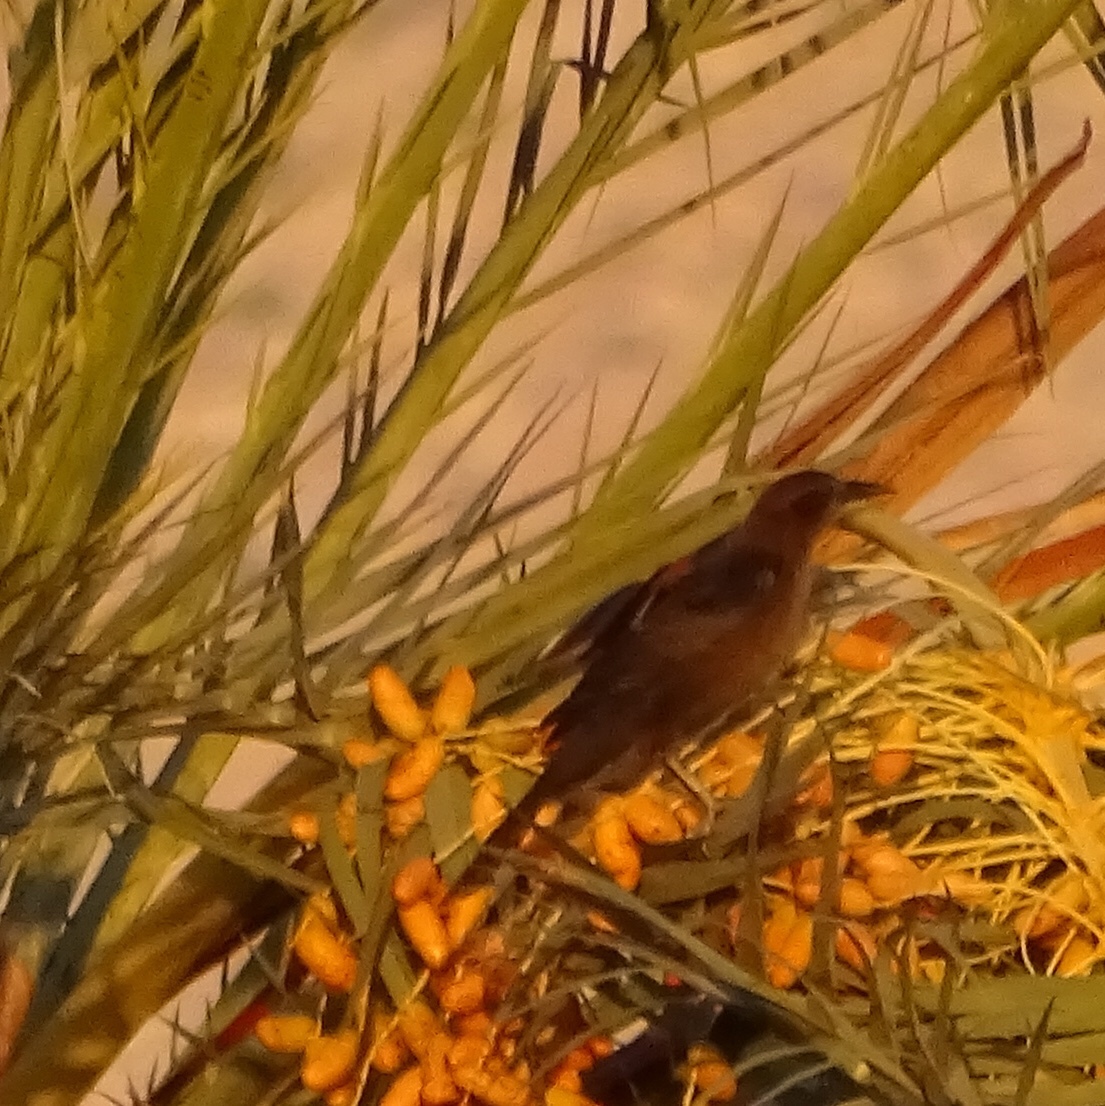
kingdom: Animalia
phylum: Chordata
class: Aves
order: Passeriformes
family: Icteridae
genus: Quiscalus
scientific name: Quiscalus mexicanus
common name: Great-tailed grackle
